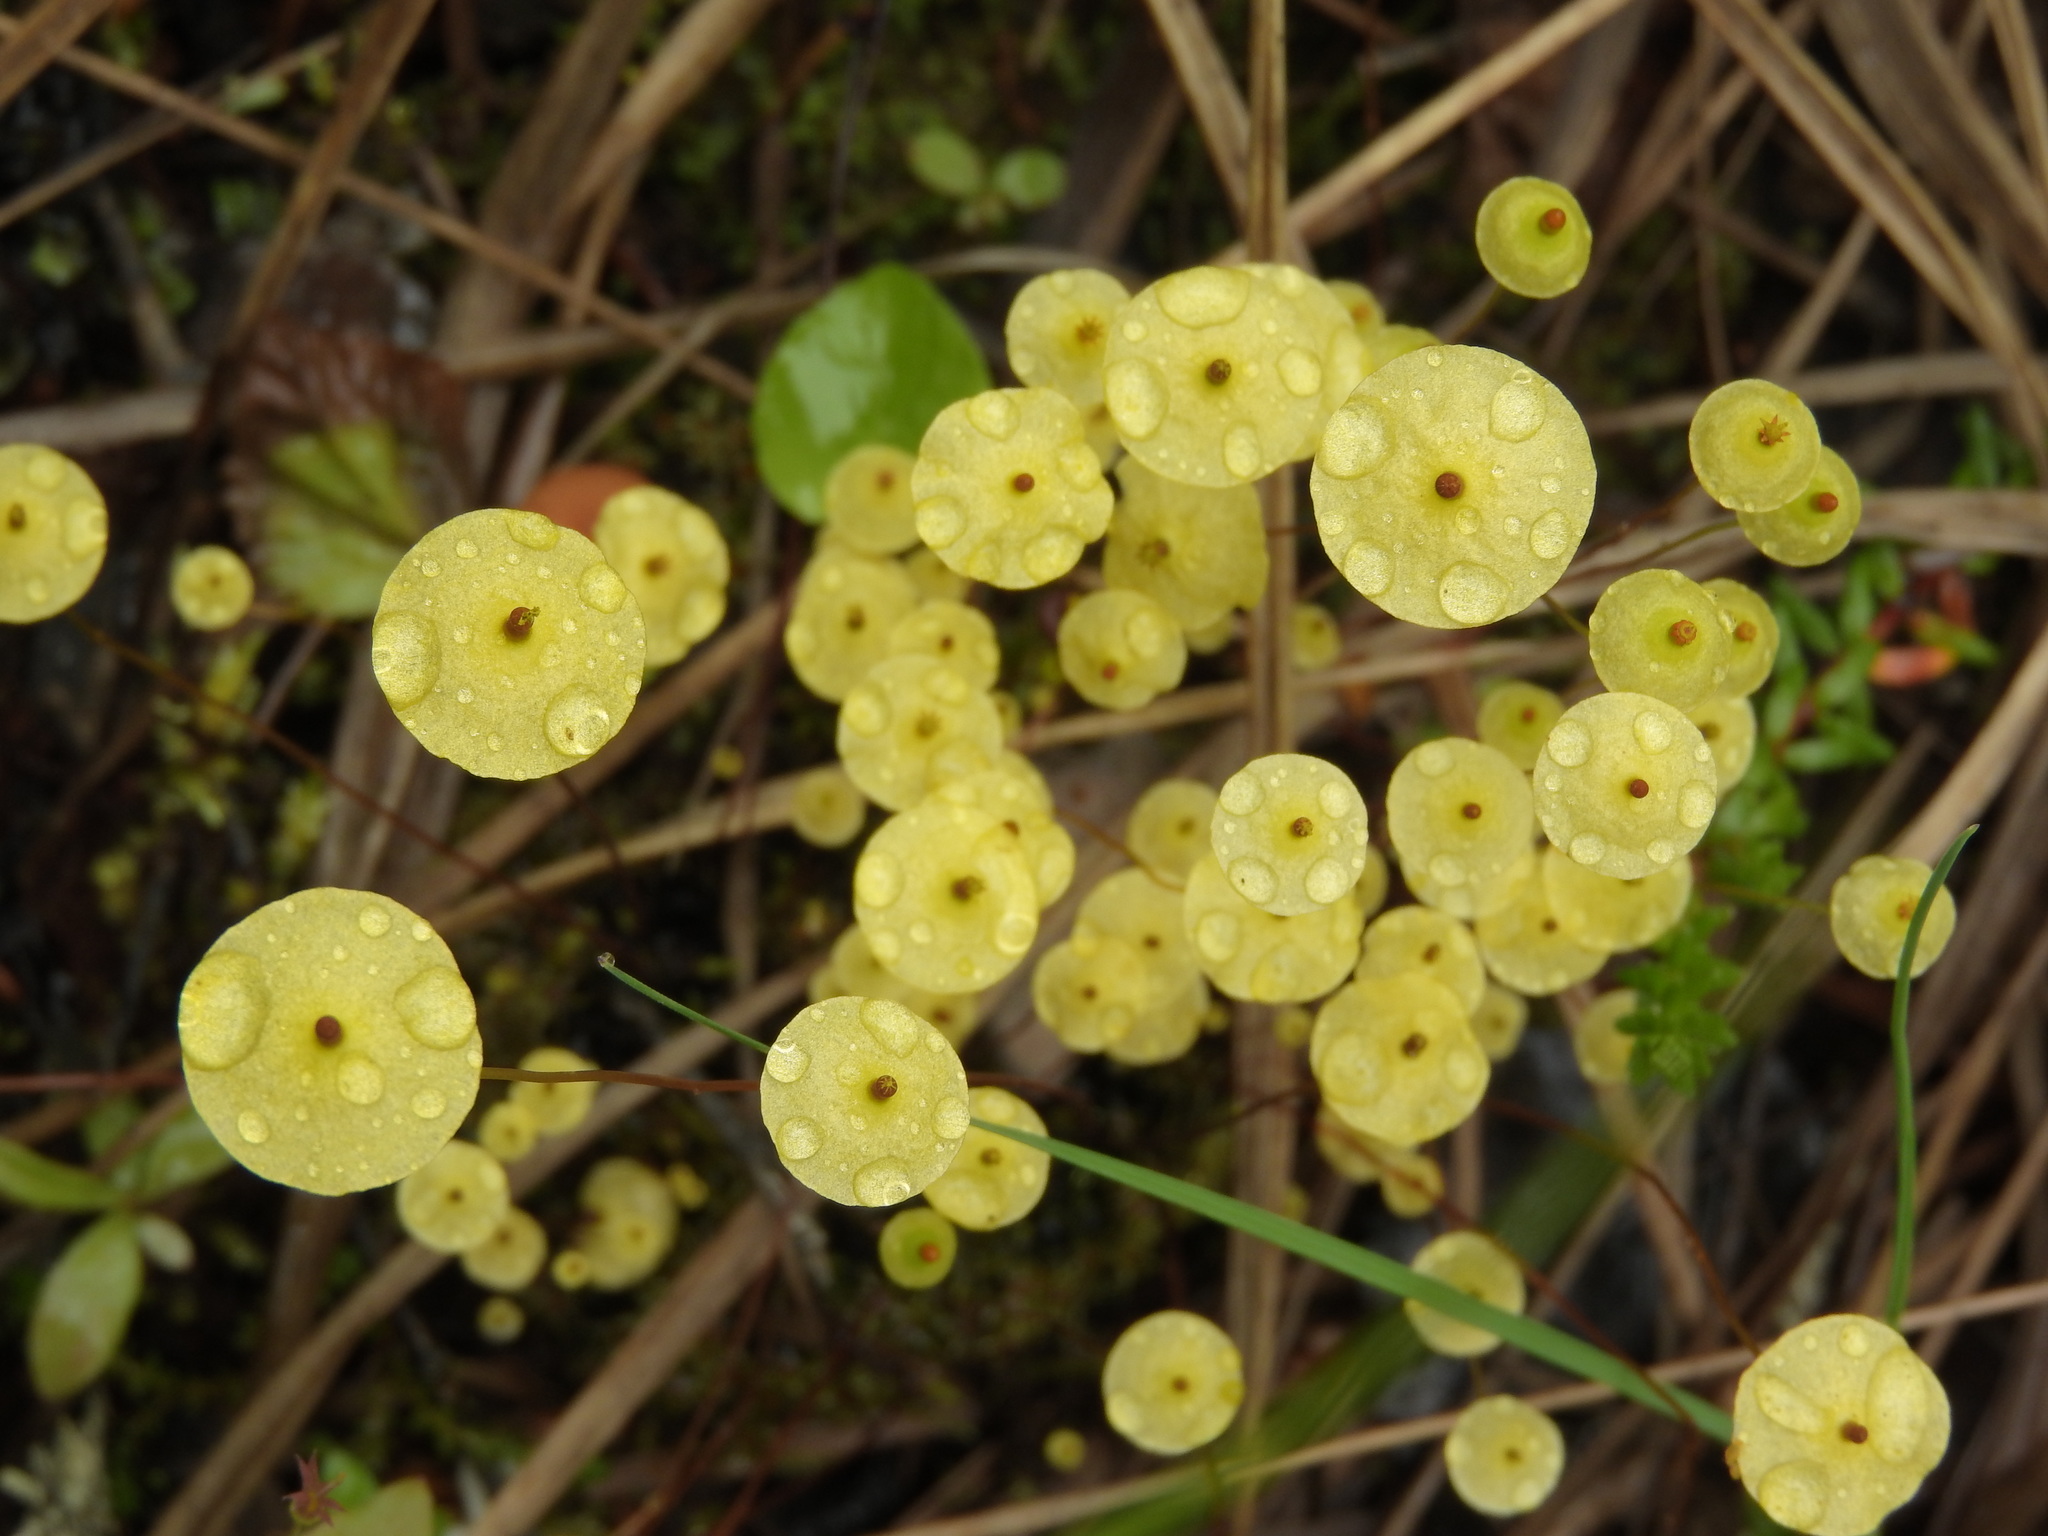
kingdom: Plantae
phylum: Bryophyta
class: Bryopsida
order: Splachnales
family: Splachnaceae
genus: Splachnum
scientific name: Splachnum luteum
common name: Yellow dung moss
